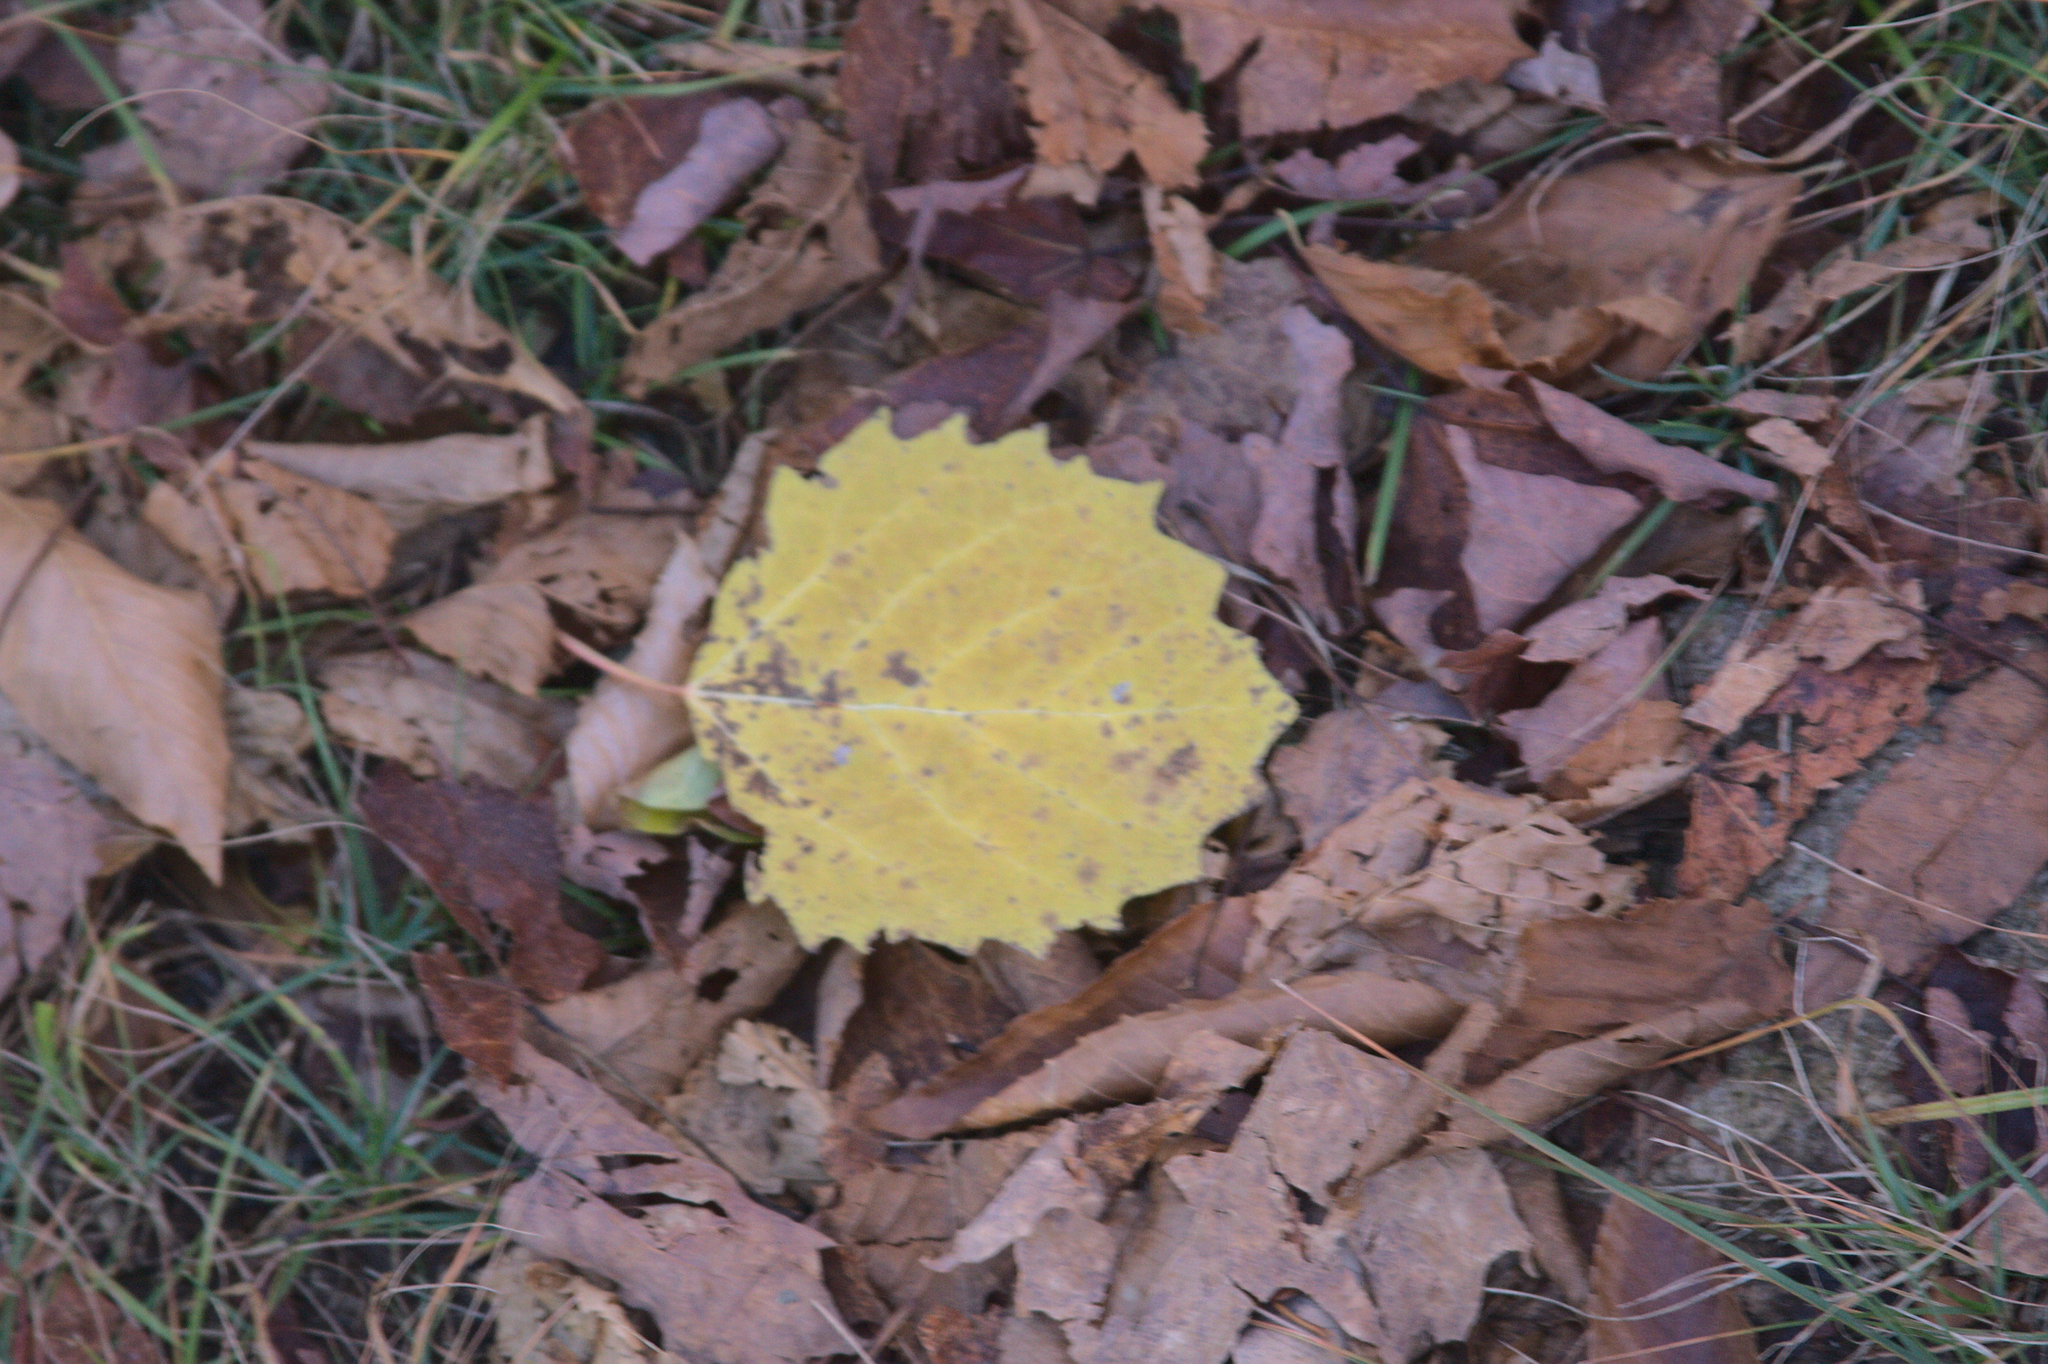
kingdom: Plantae
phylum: Tracheophyta
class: Magnoliopsida
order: Malpighiales
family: Salicaceae
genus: Populus
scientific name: Populus grandidentata
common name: Bigtooth aspen
